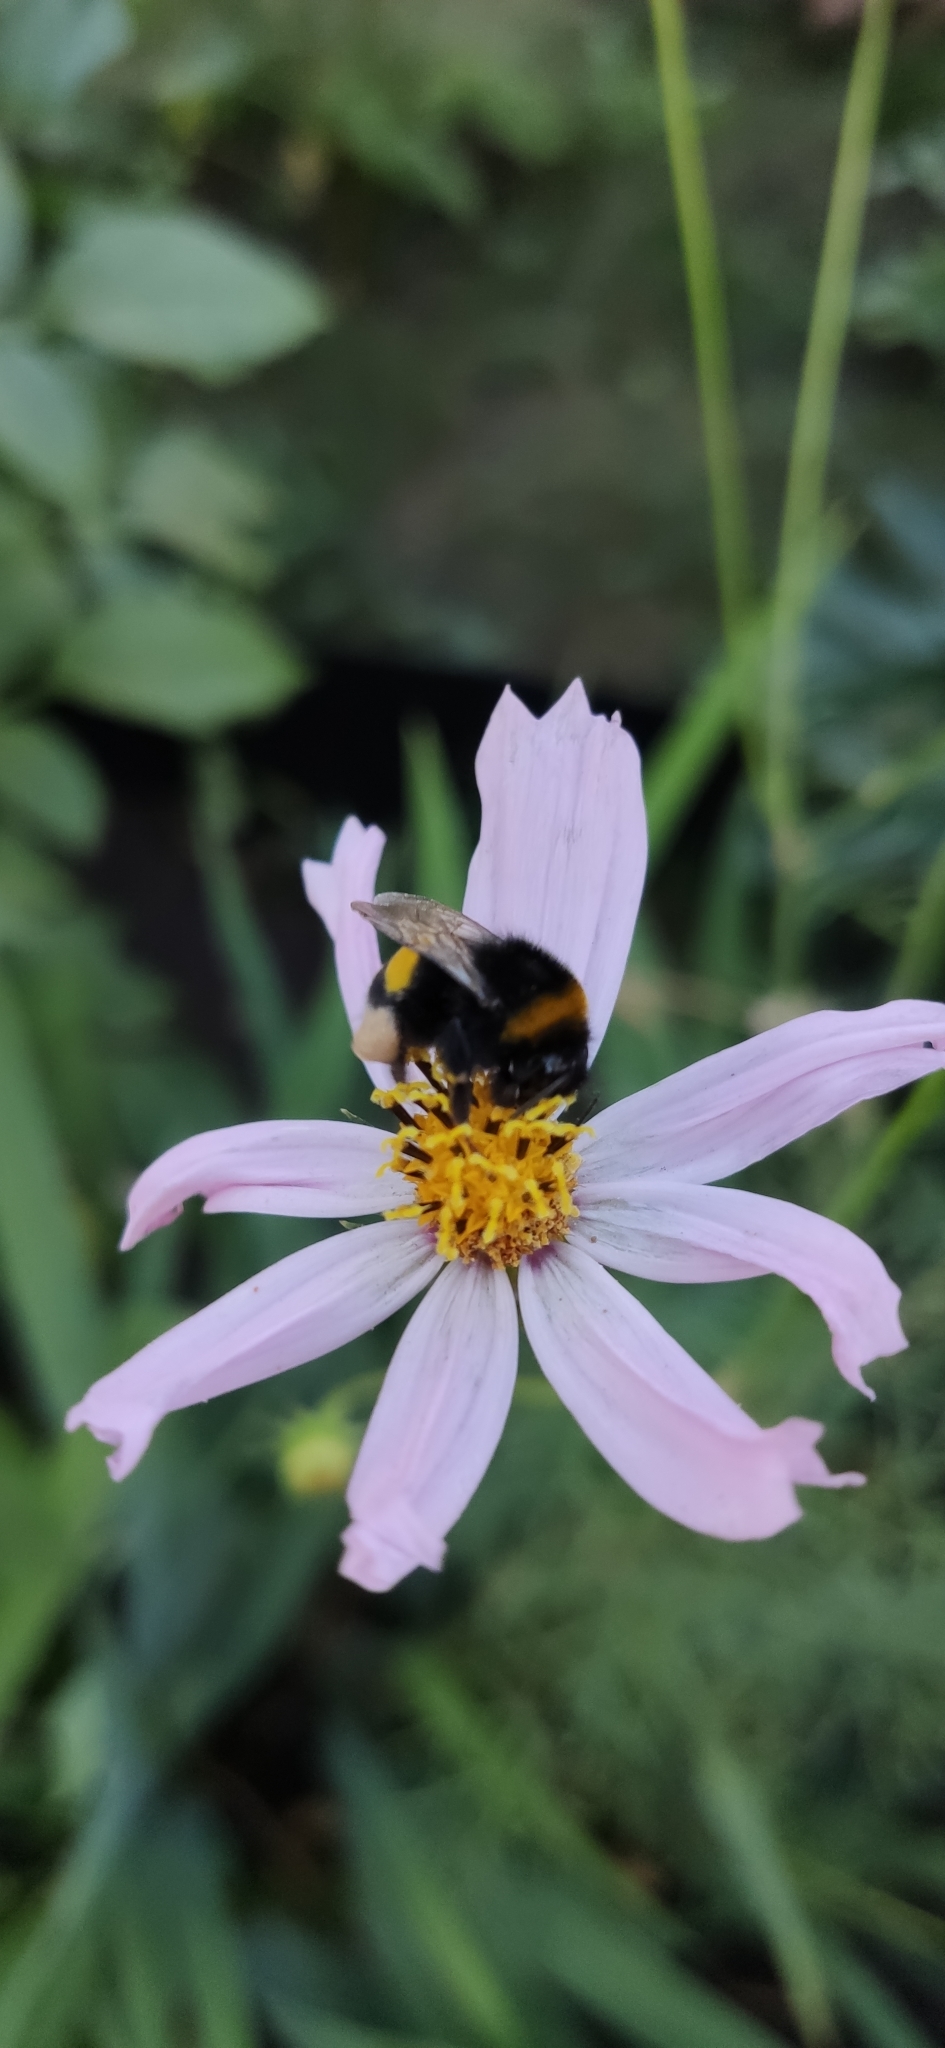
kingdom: Animalia
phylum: Arthropoda
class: Insecta
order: Hymenoptera
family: Apidae
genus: Bombus
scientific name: Bombus
